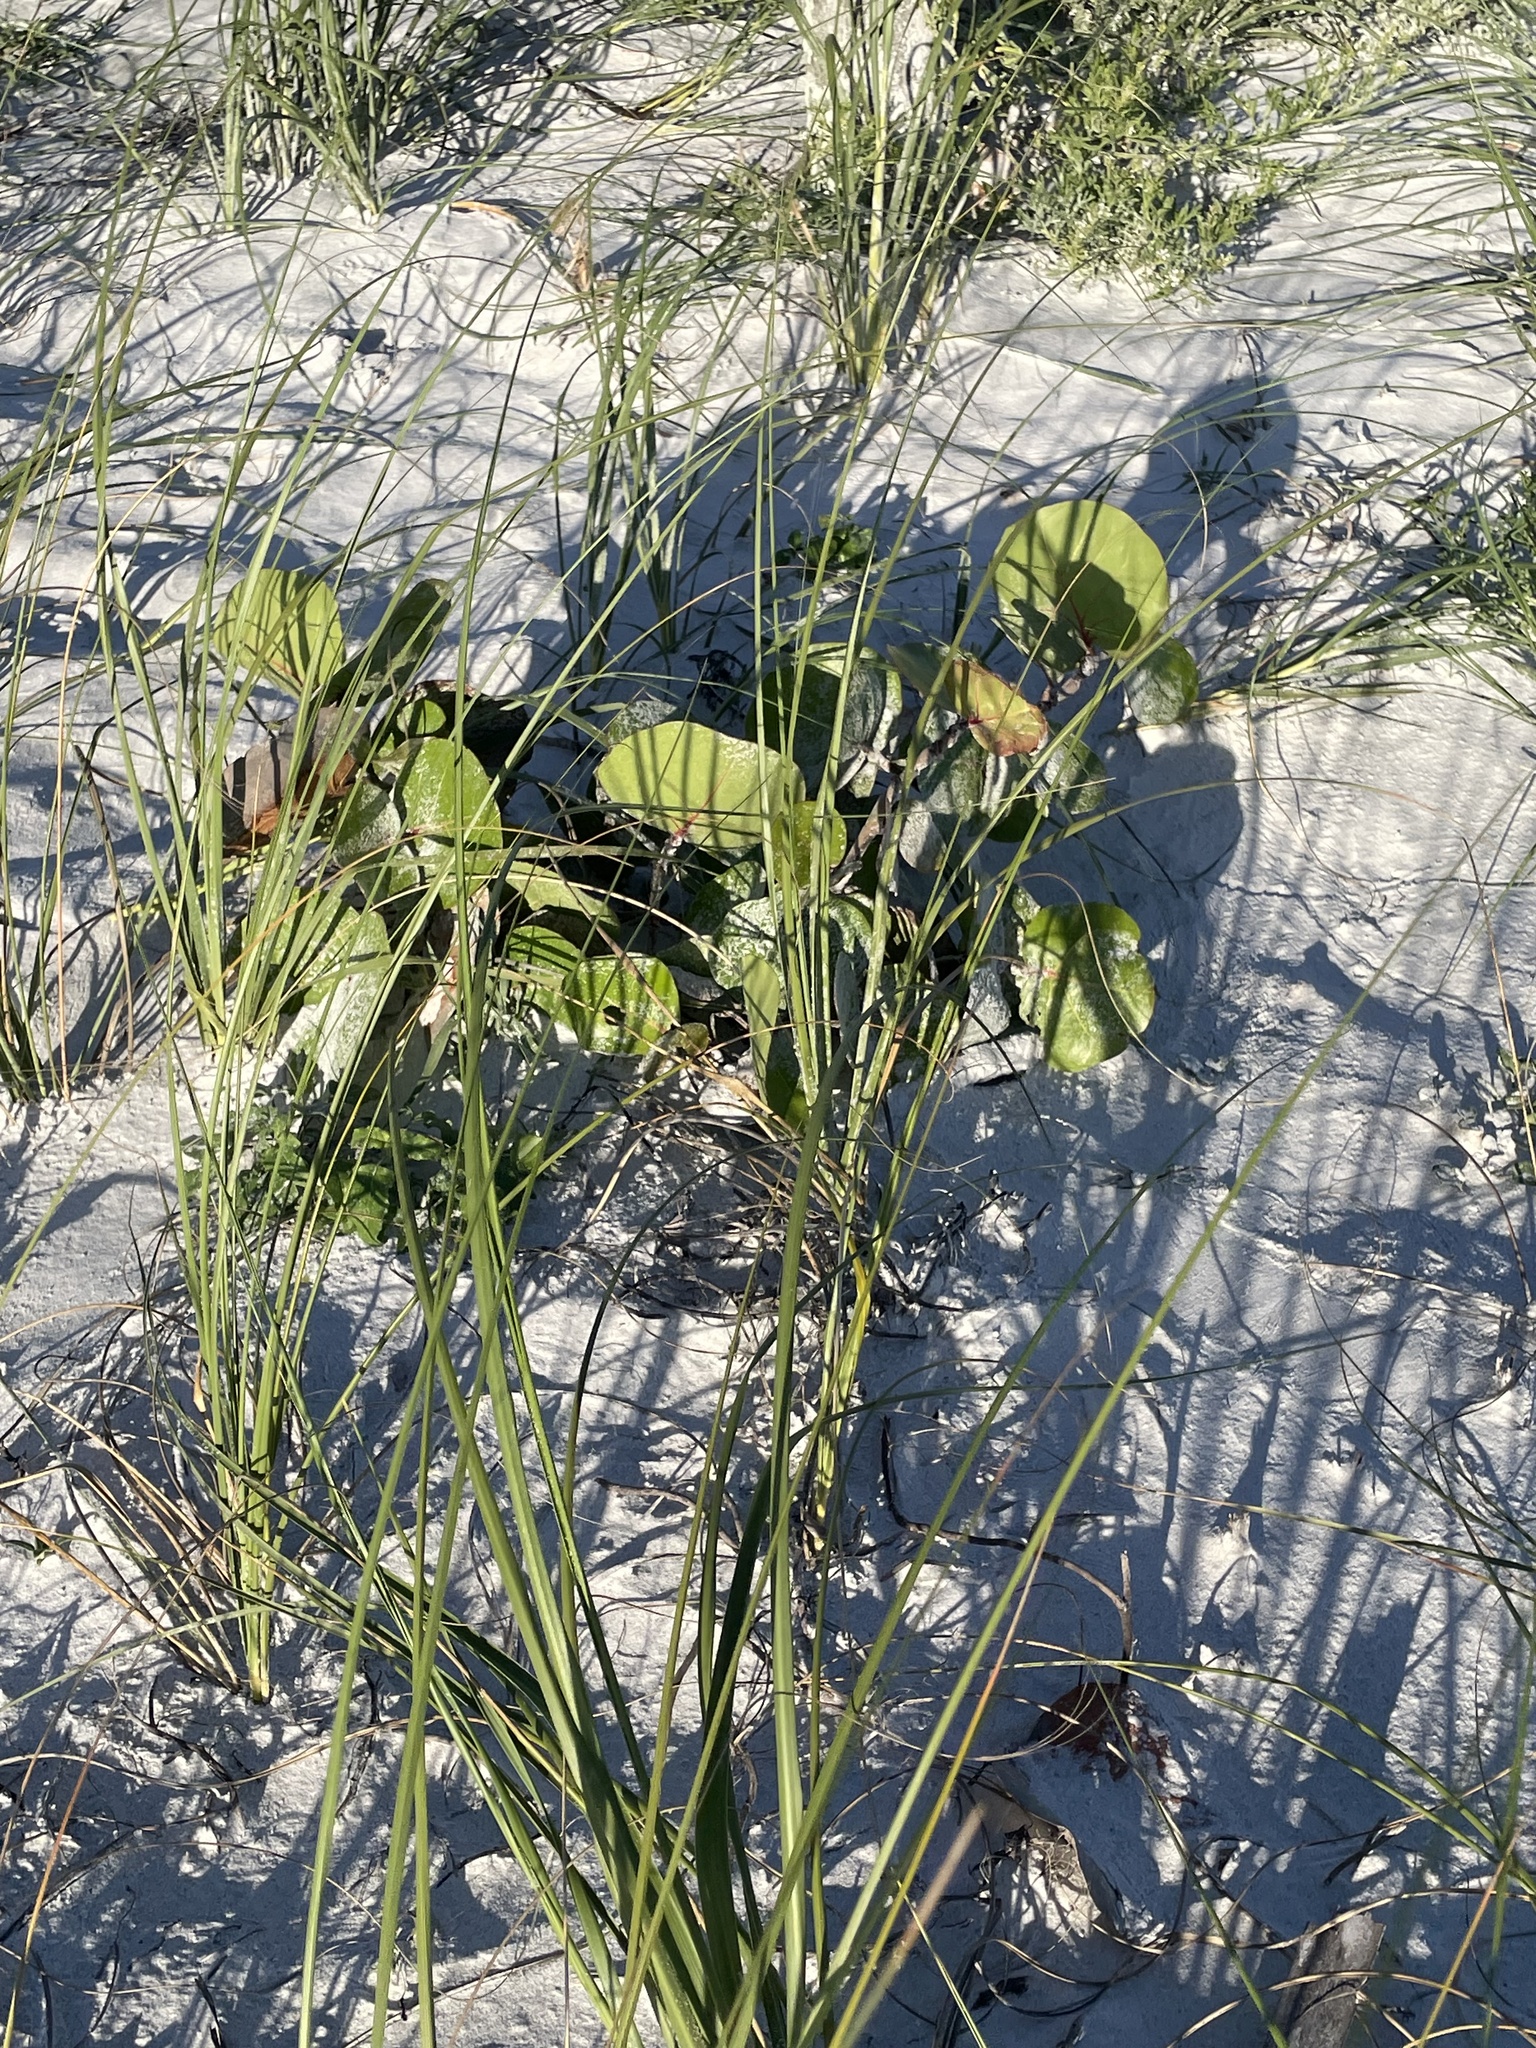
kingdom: Plantae
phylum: Tracheophyta
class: Magnoliopsida
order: Caryophyllales
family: Polygonaceae
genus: Coccoloba
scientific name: Coccoloba uvifera
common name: Seagrape
